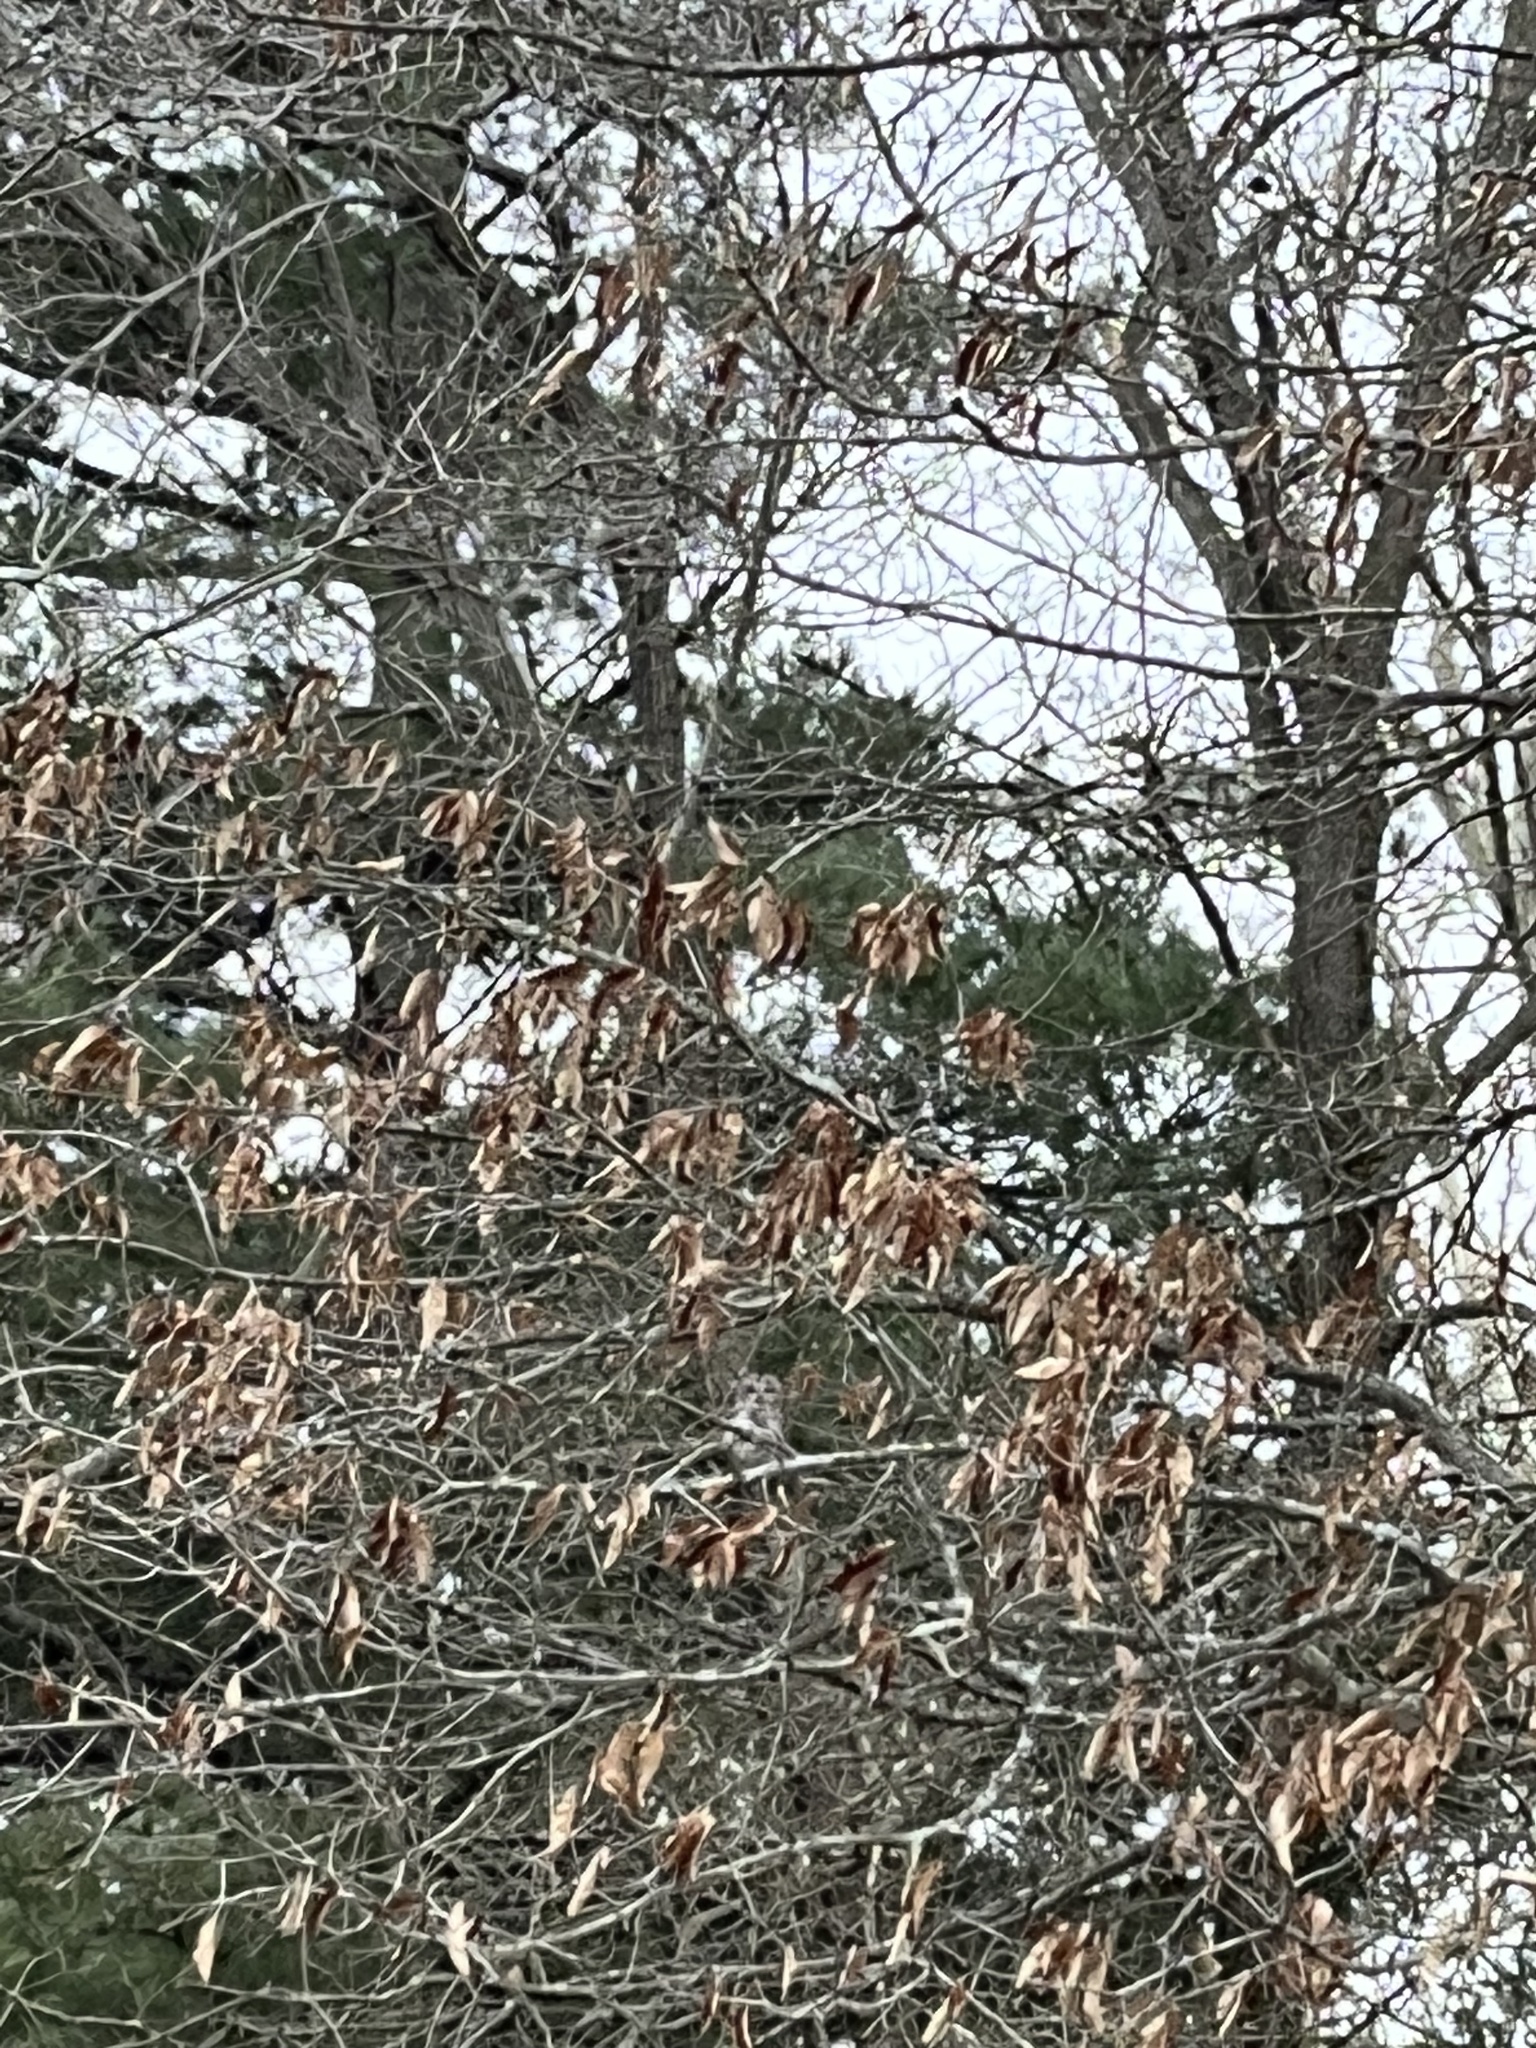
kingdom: Animalia
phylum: Chordata
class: Aves
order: Strigiformes
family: Strigidae
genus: Strix
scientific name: Strix varia
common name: Barred owl
